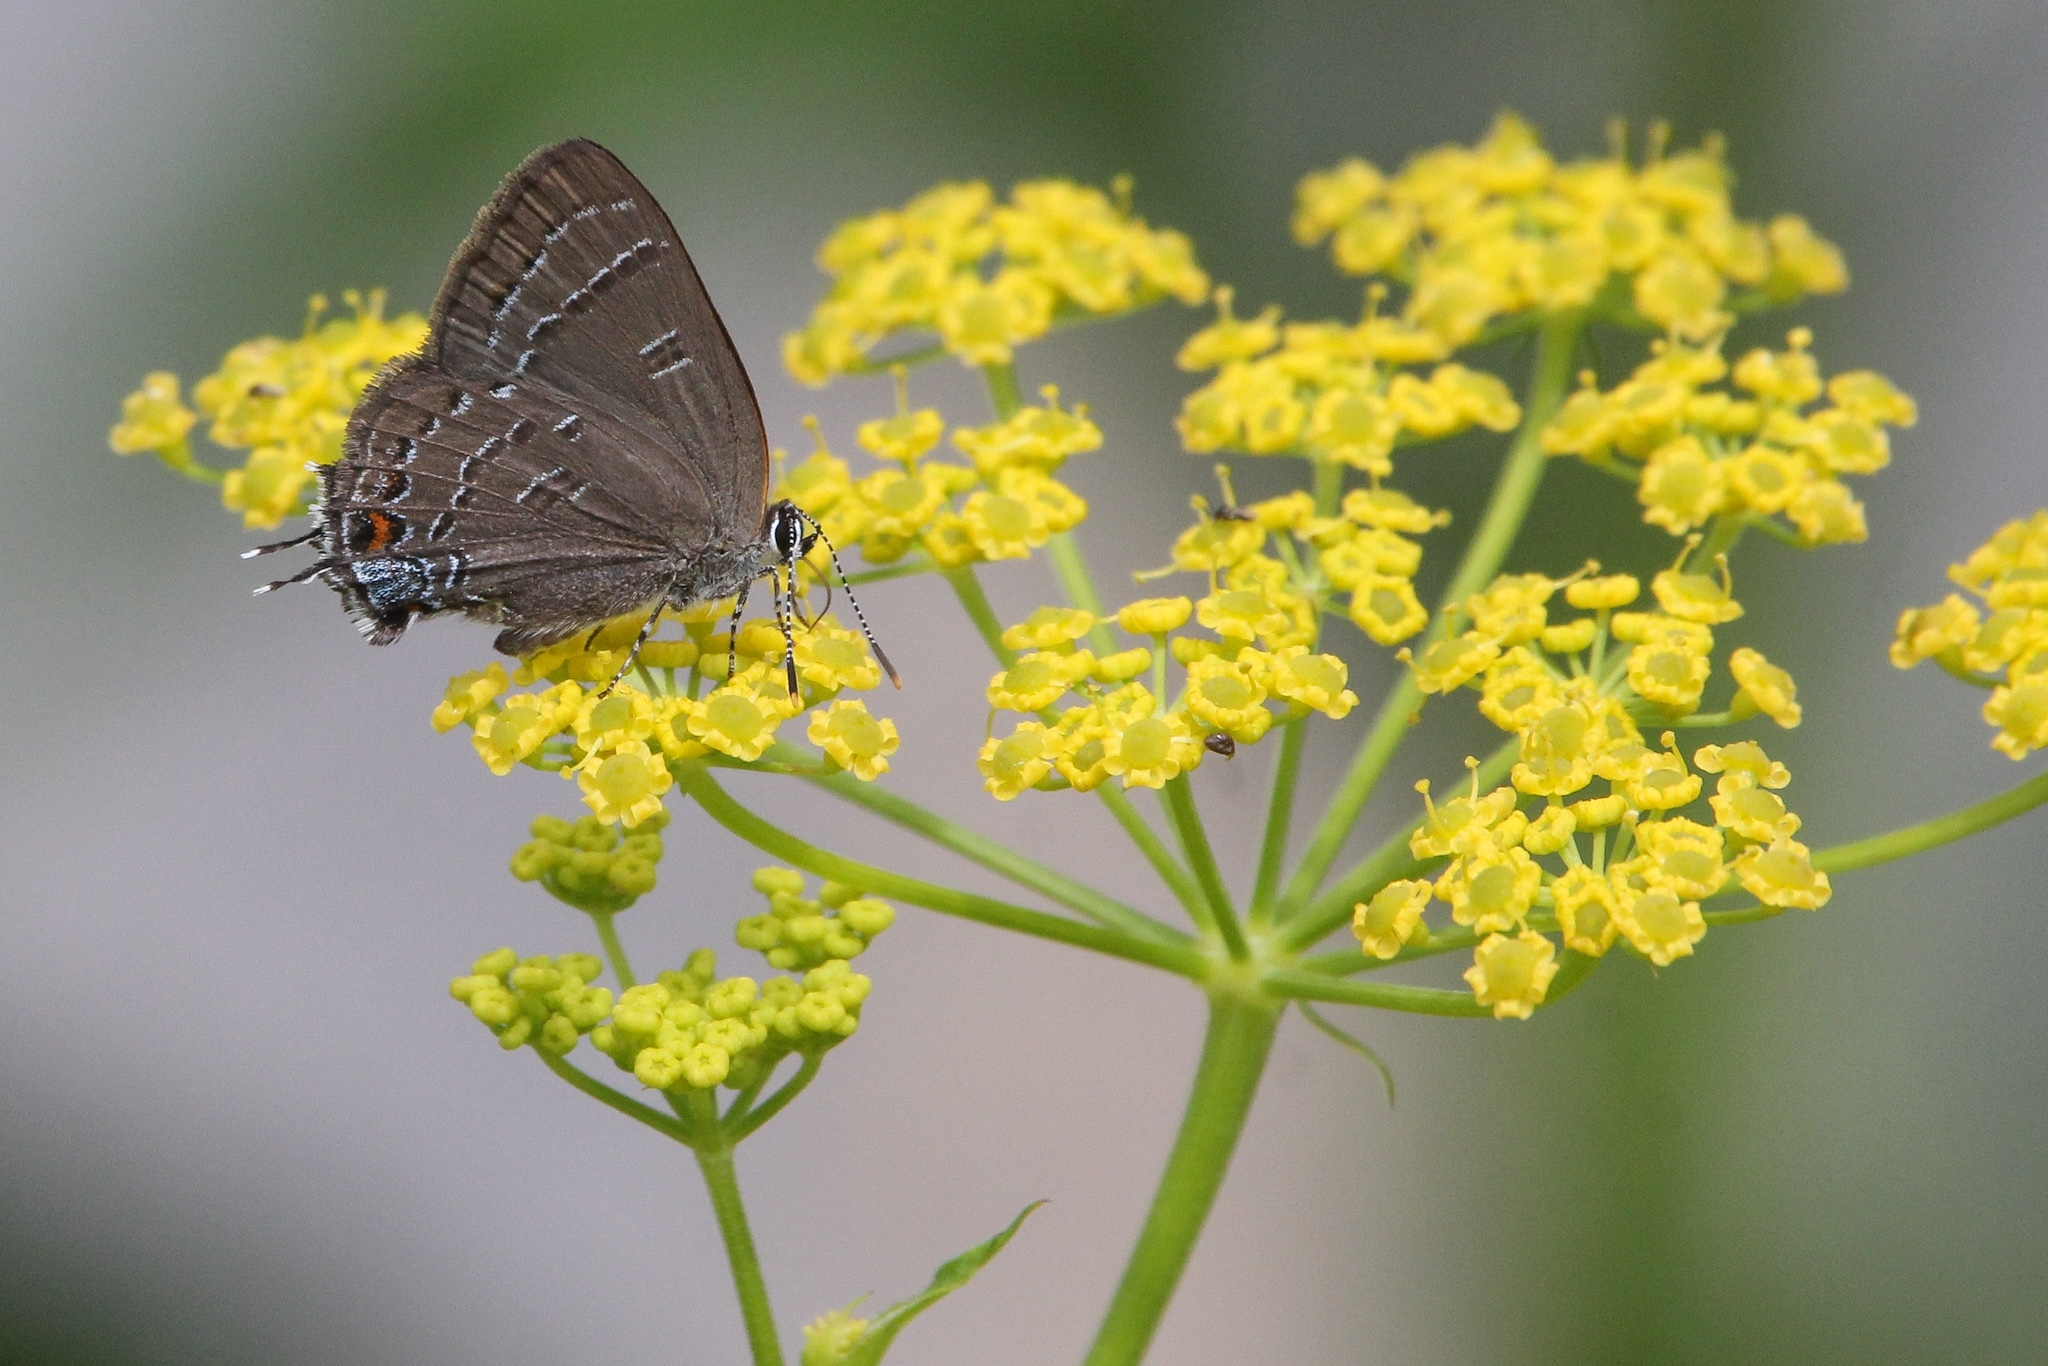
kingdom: Animalia
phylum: Arthropoda
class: Insecta
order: Lepidoptera
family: Lycaenidae
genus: Satyrium
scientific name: Satyrium calanus
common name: Banded hairstreak
